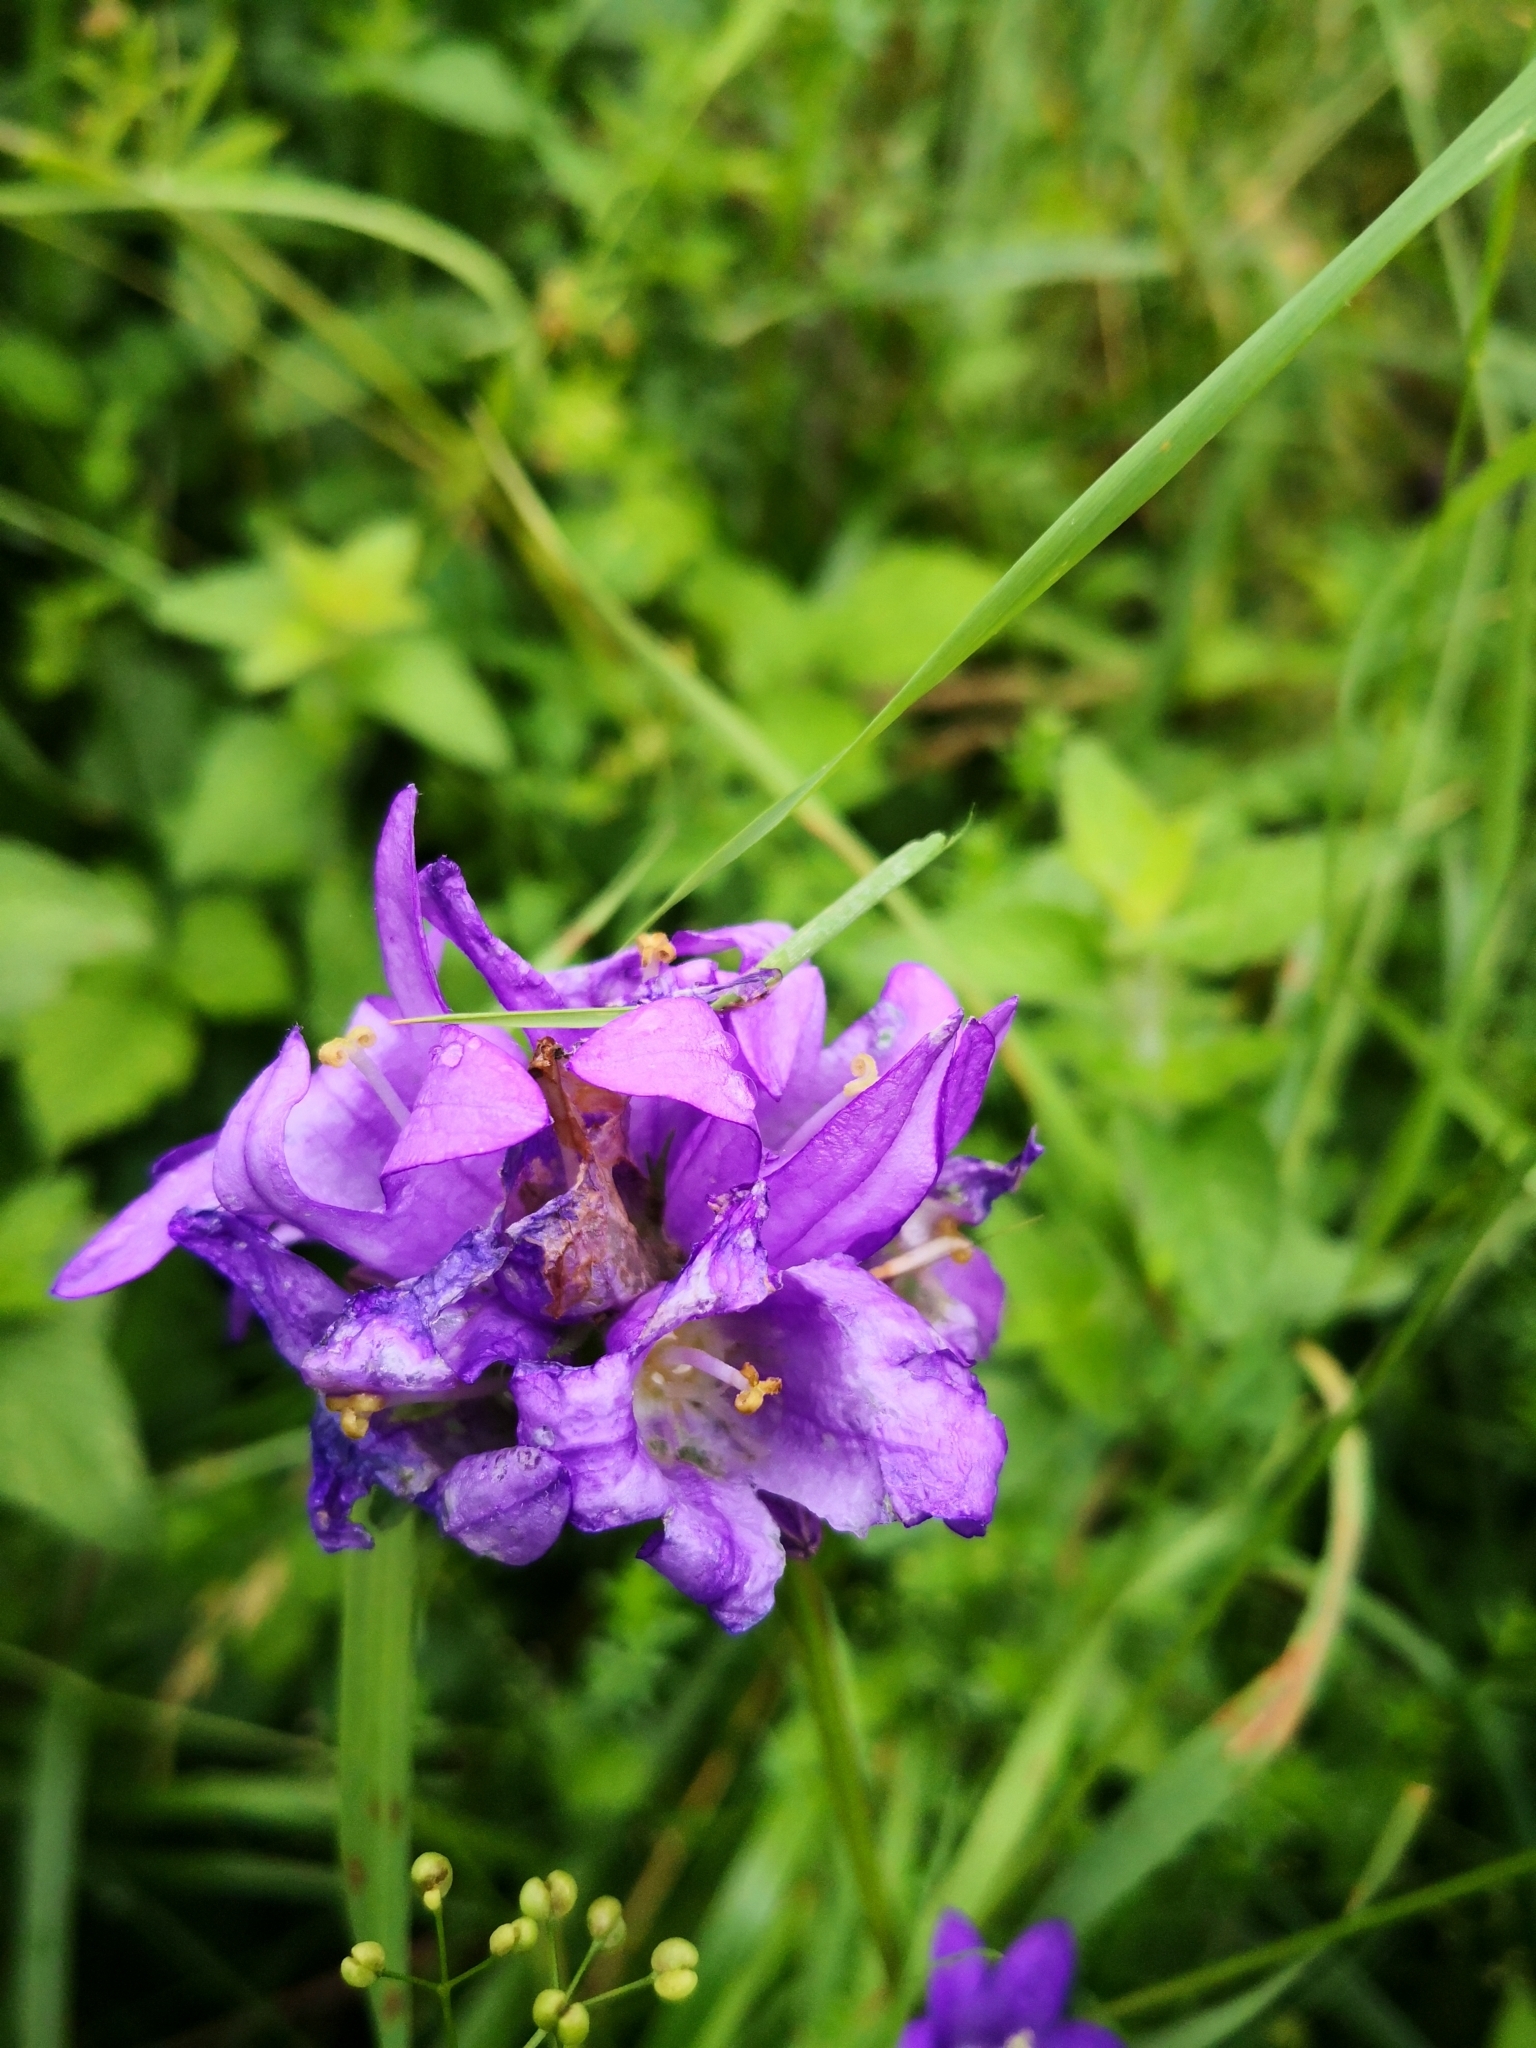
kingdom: Plantae
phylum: Tracheophyta
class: Magnoliopsida
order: Asterales
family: Campanulaceae
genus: Campanula
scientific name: Campanula glomerata
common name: Clustered bellflower
